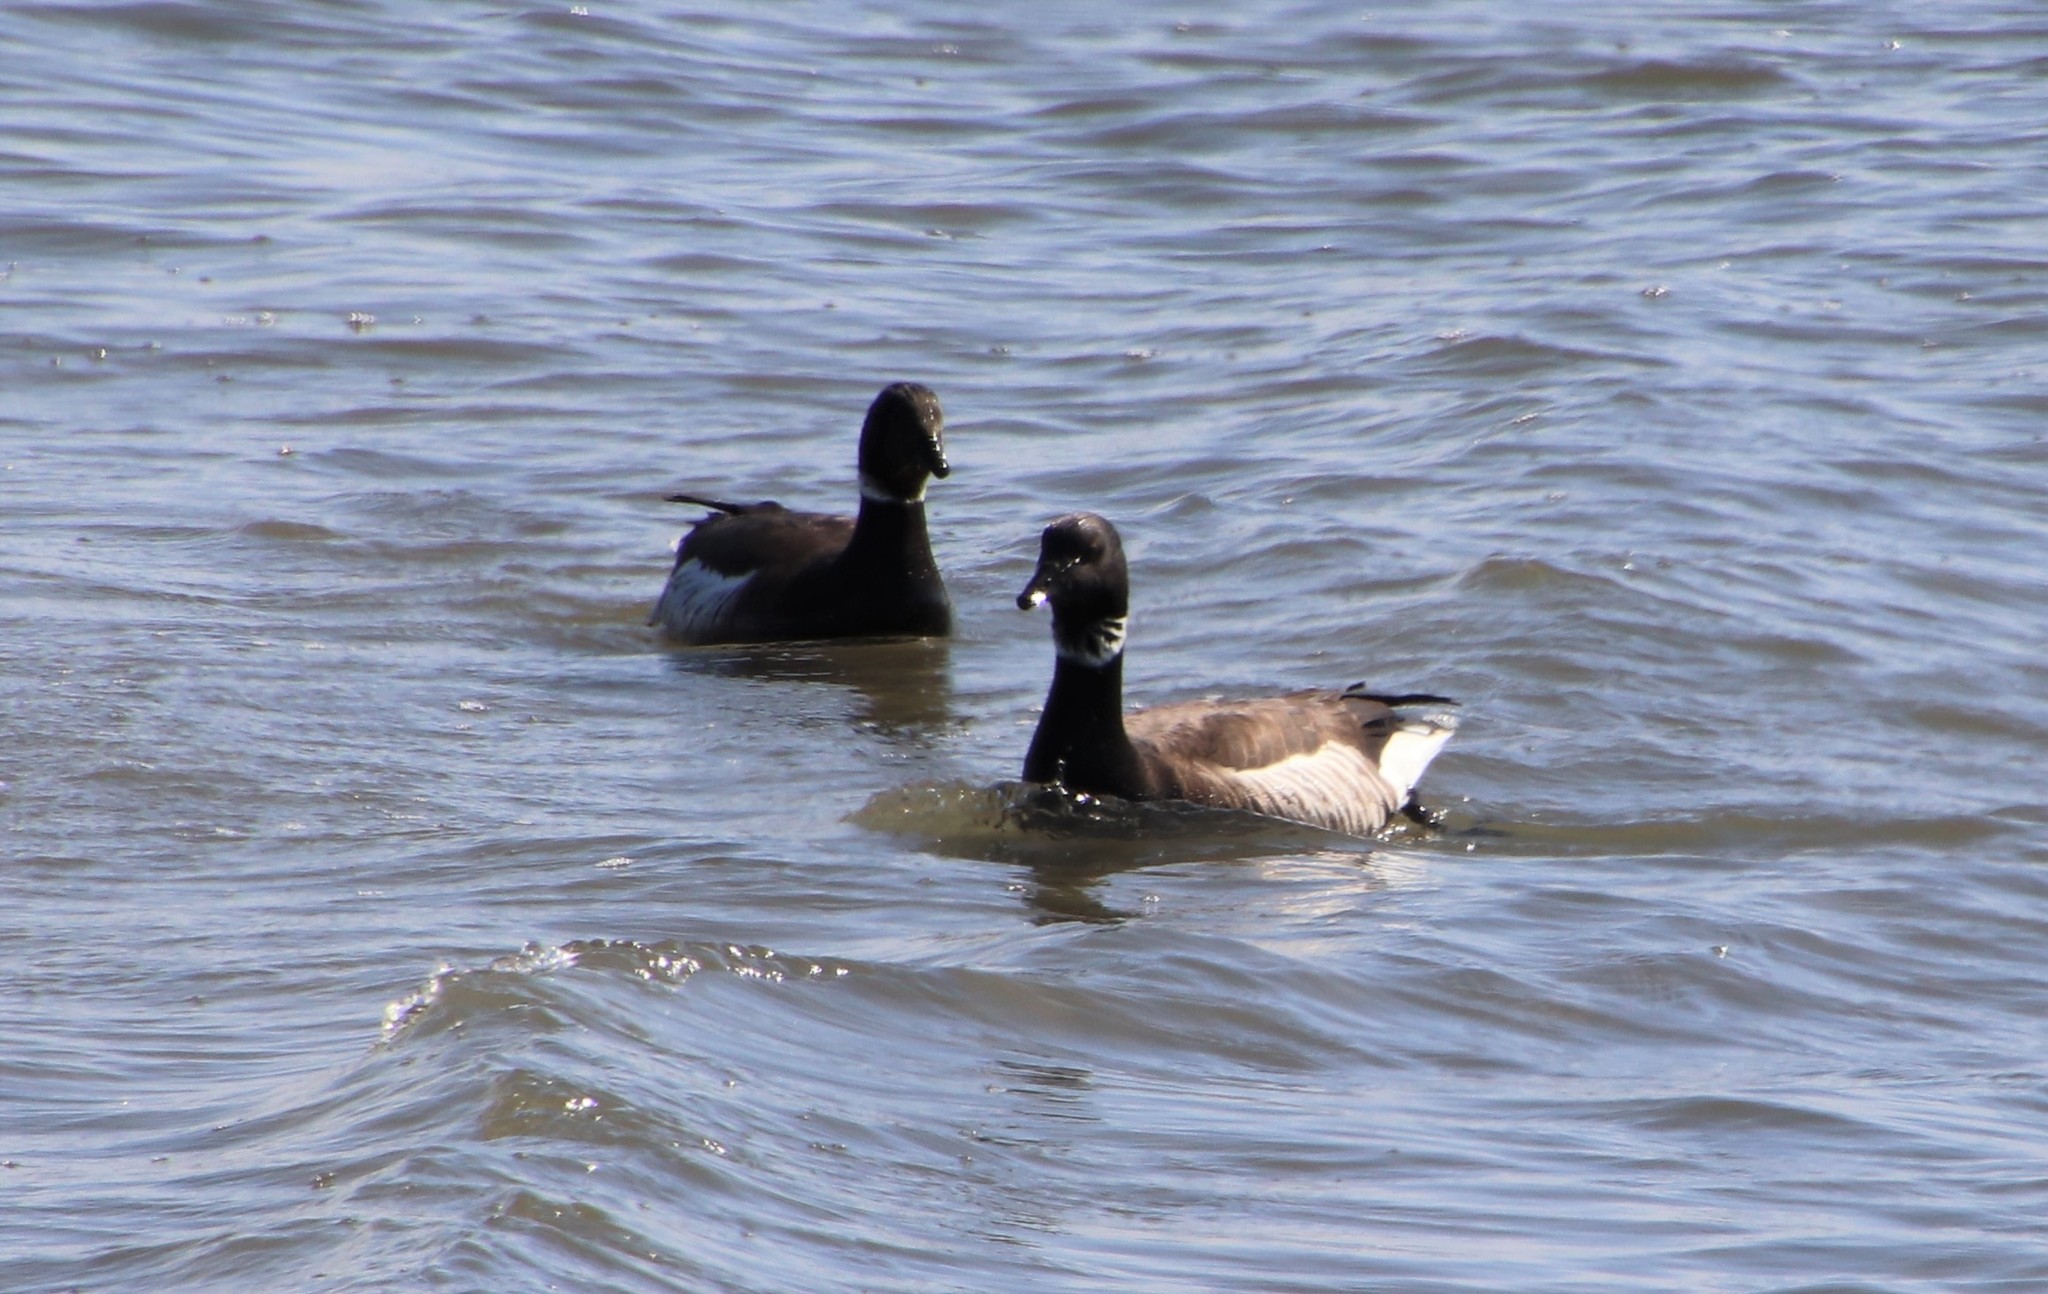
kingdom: Animalia
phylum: Chordata
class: Aves
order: Anseriformes
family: Anatidae
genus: Branta
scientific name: Branta bernicla
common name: Brant goose
